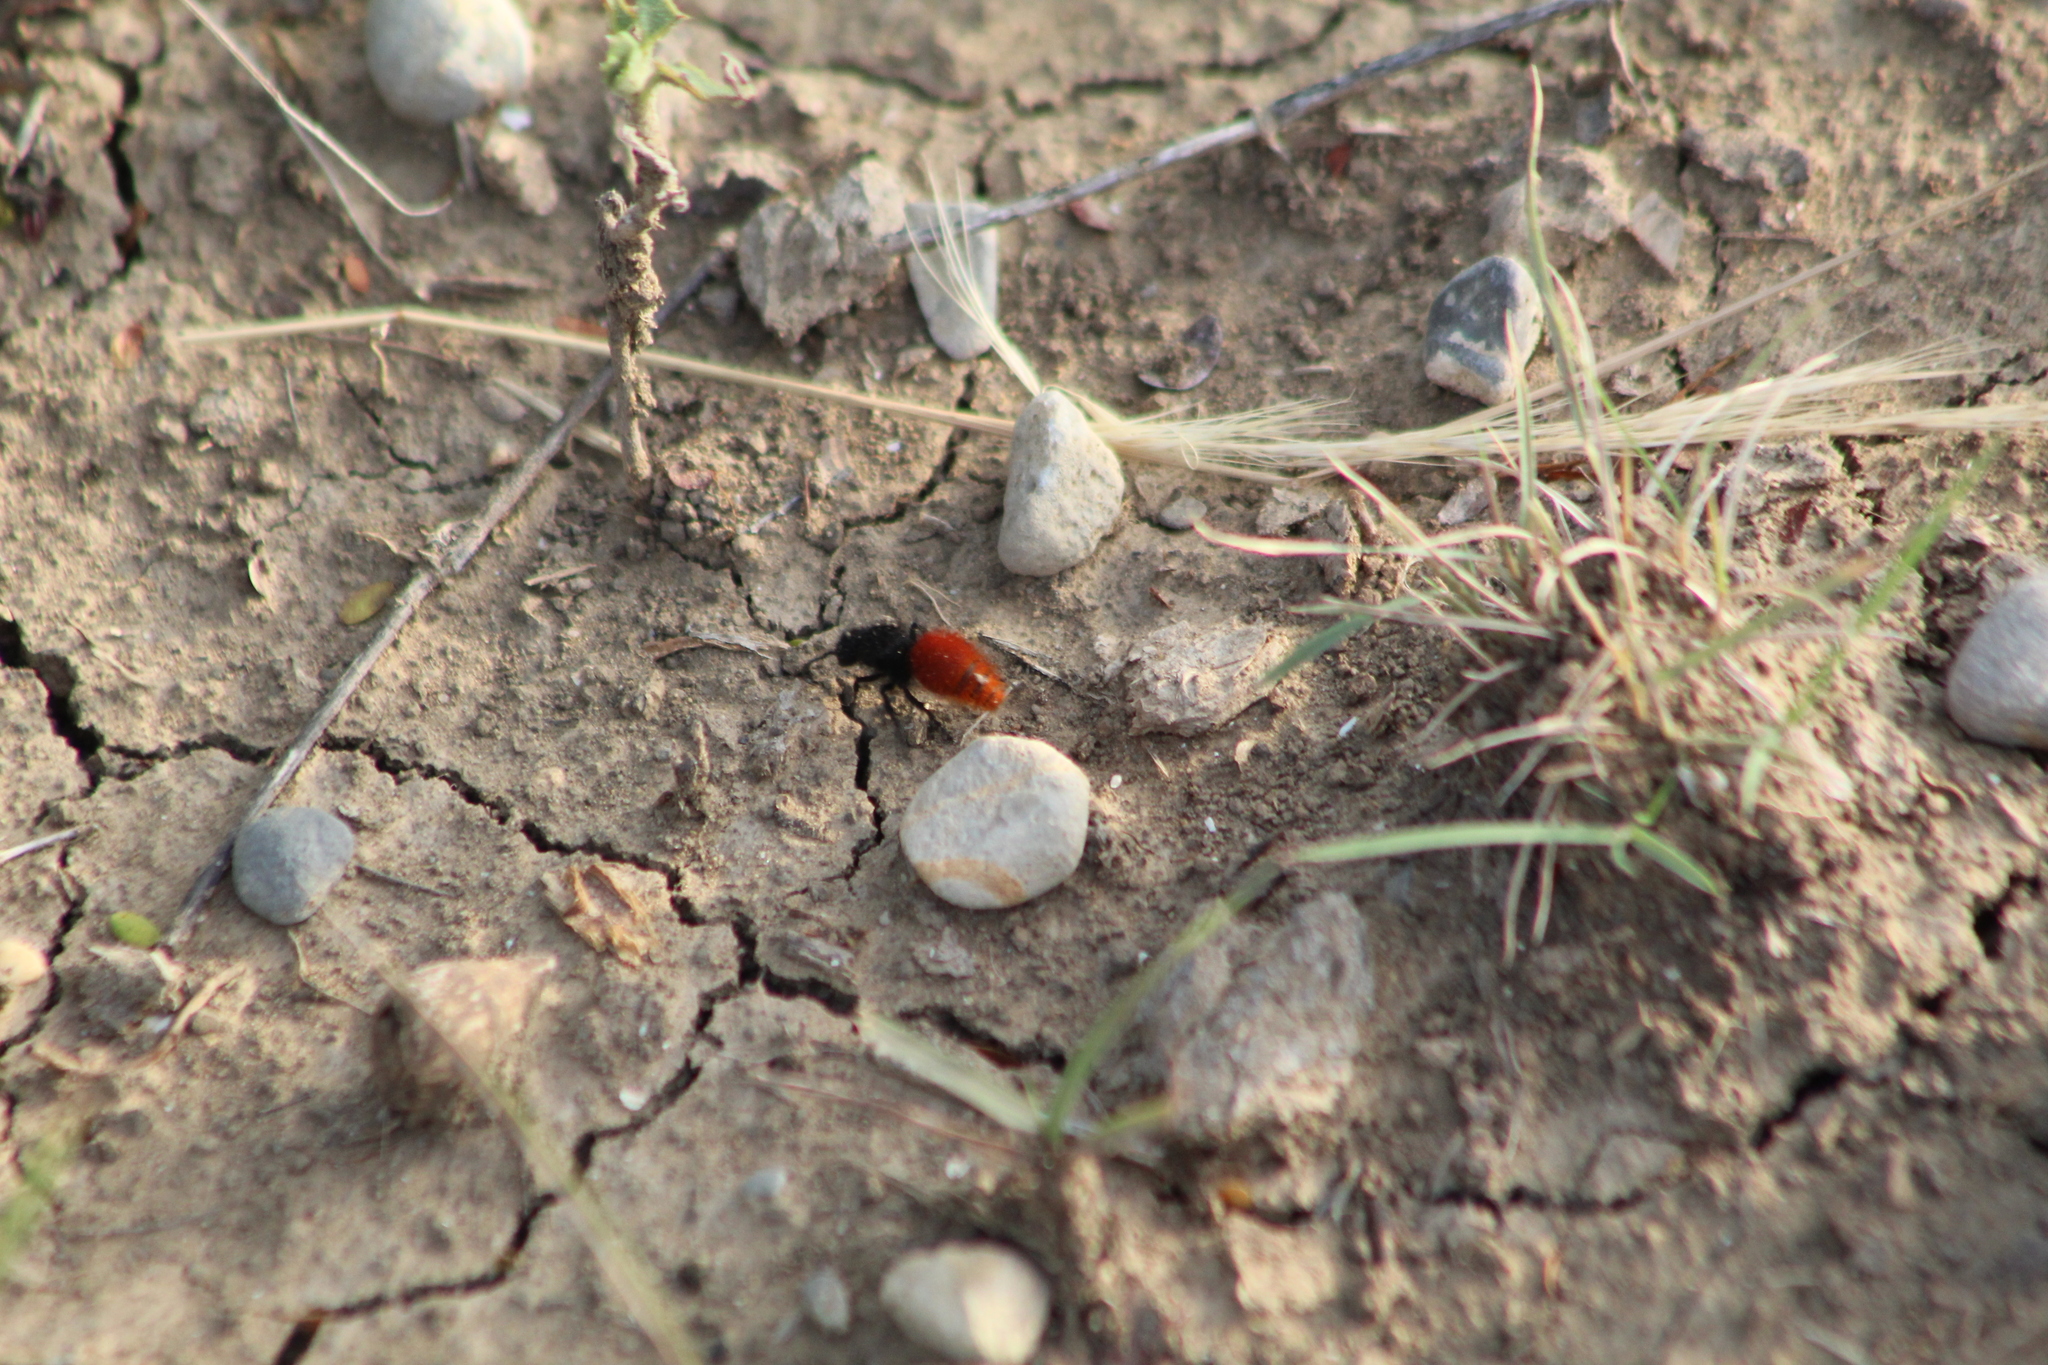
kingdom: Animalia
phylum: Arthropoda
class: Insecta
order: Hymenoptera
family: Mutillidae
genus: Dasymutilla
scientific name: Dasymutilla vestita
